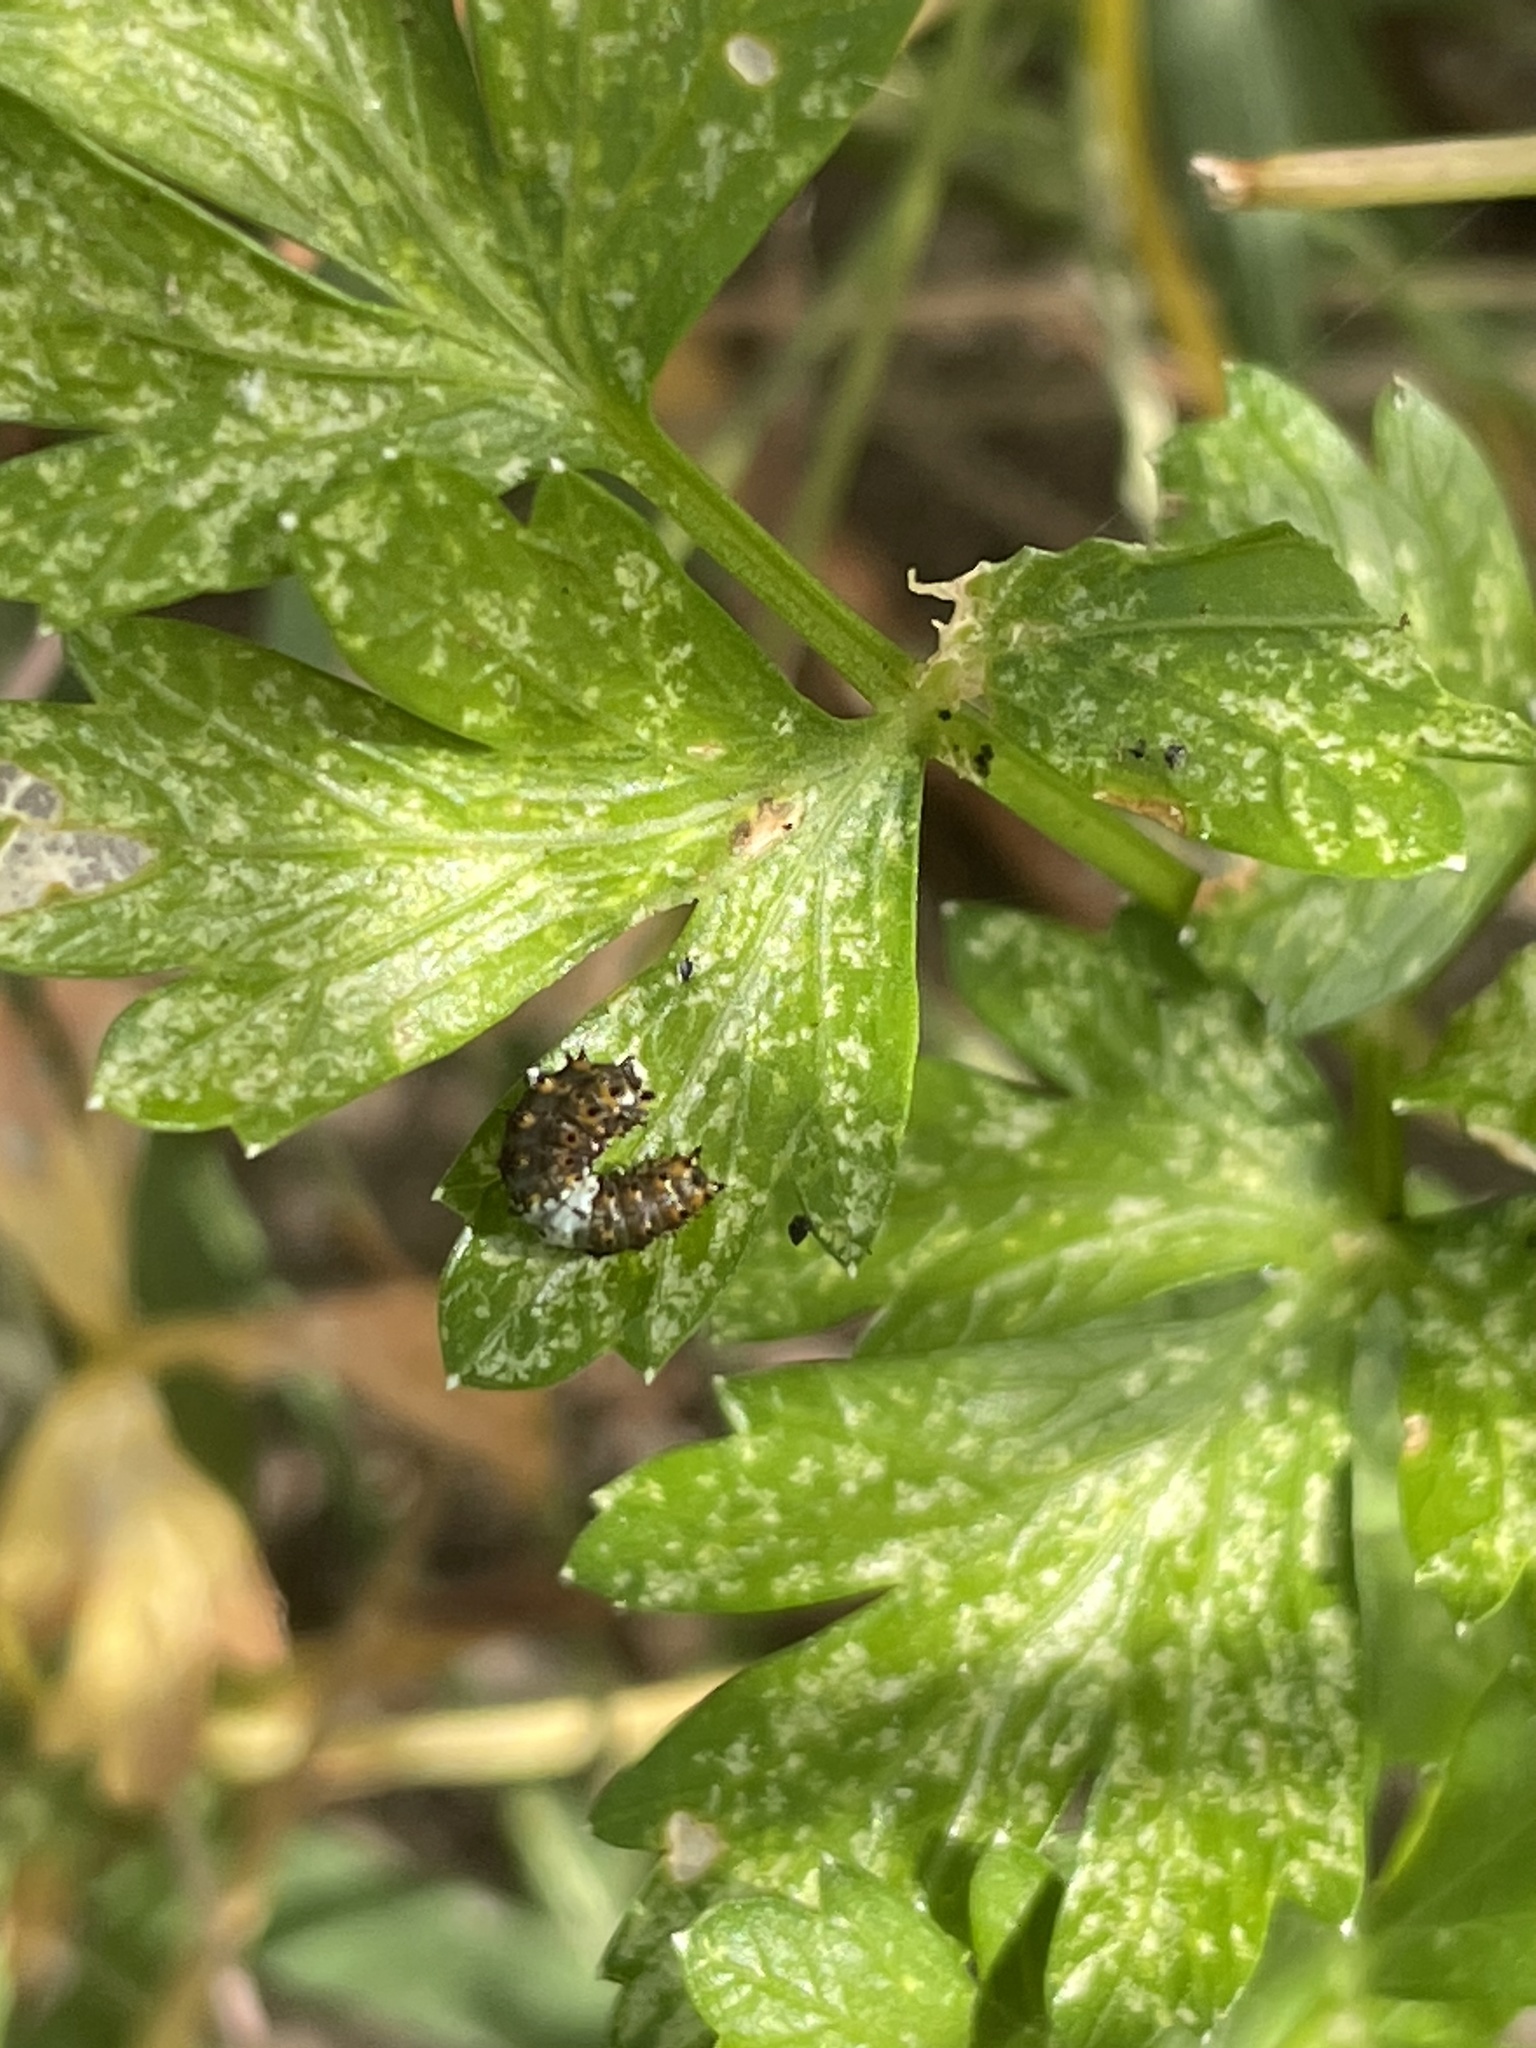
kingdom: Animalia
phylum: Arthropoda
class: Insecta
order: Lepidoptera
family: Papilionidae
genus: Papilio
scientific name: Papilio polyxenes
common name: Black swallowtail
